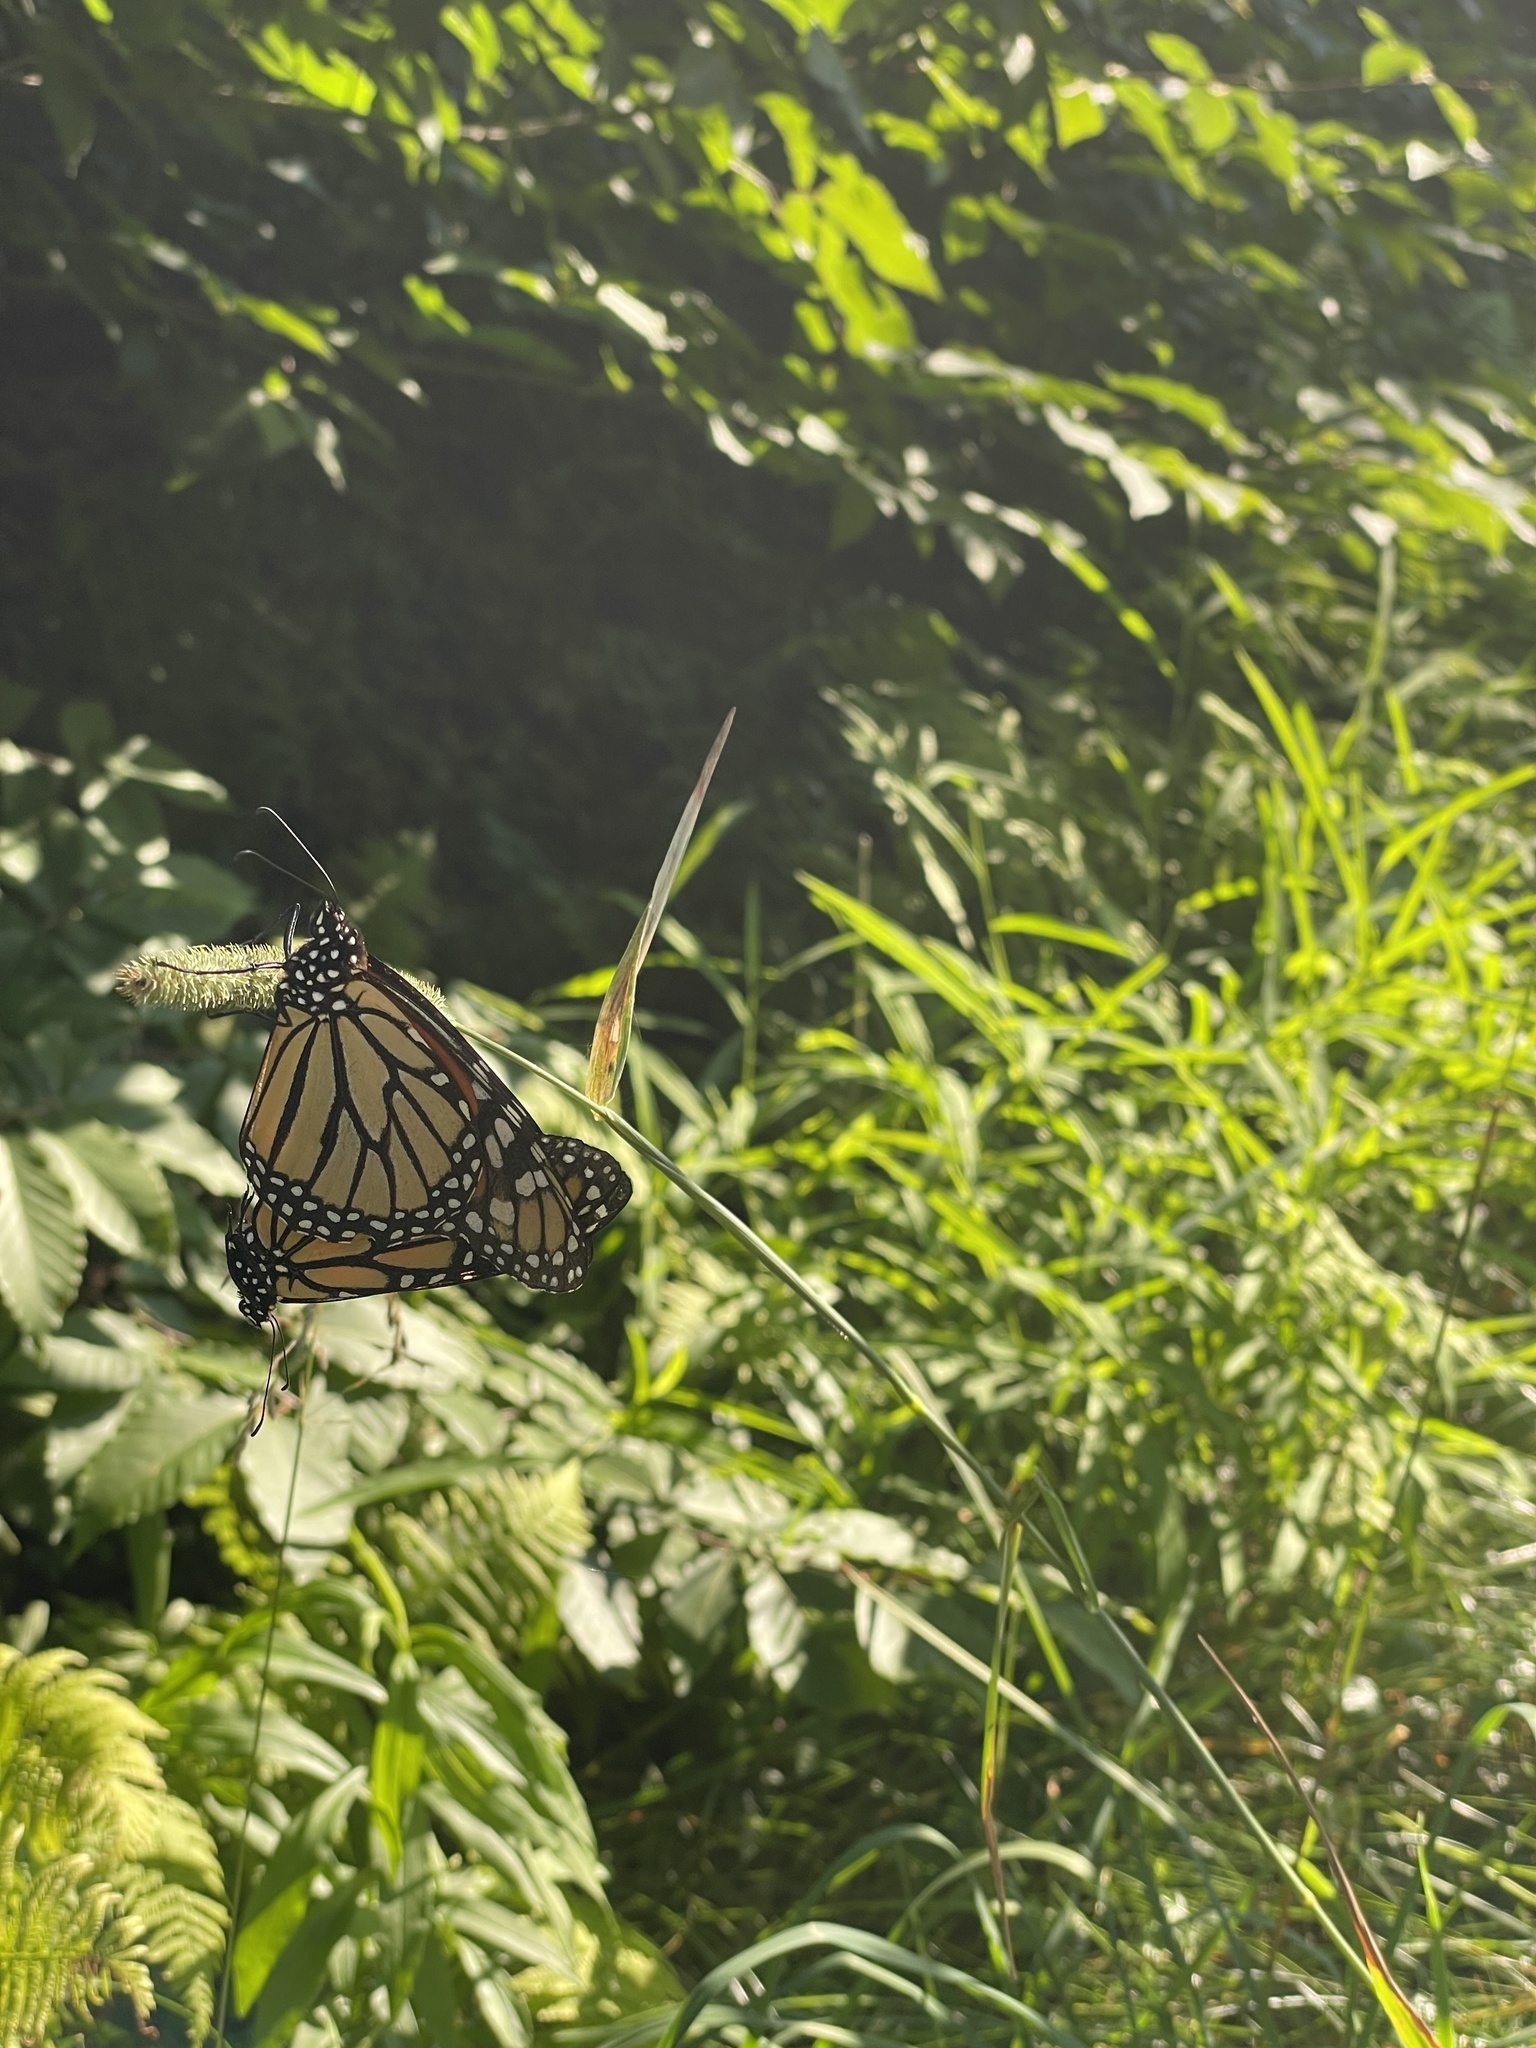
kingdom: Animalia
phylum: Arthropoda
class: Insecta
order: Lepidoptera
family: Nymphalidae
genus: Danaus
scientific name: Danaus plexippus
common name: Monarch
